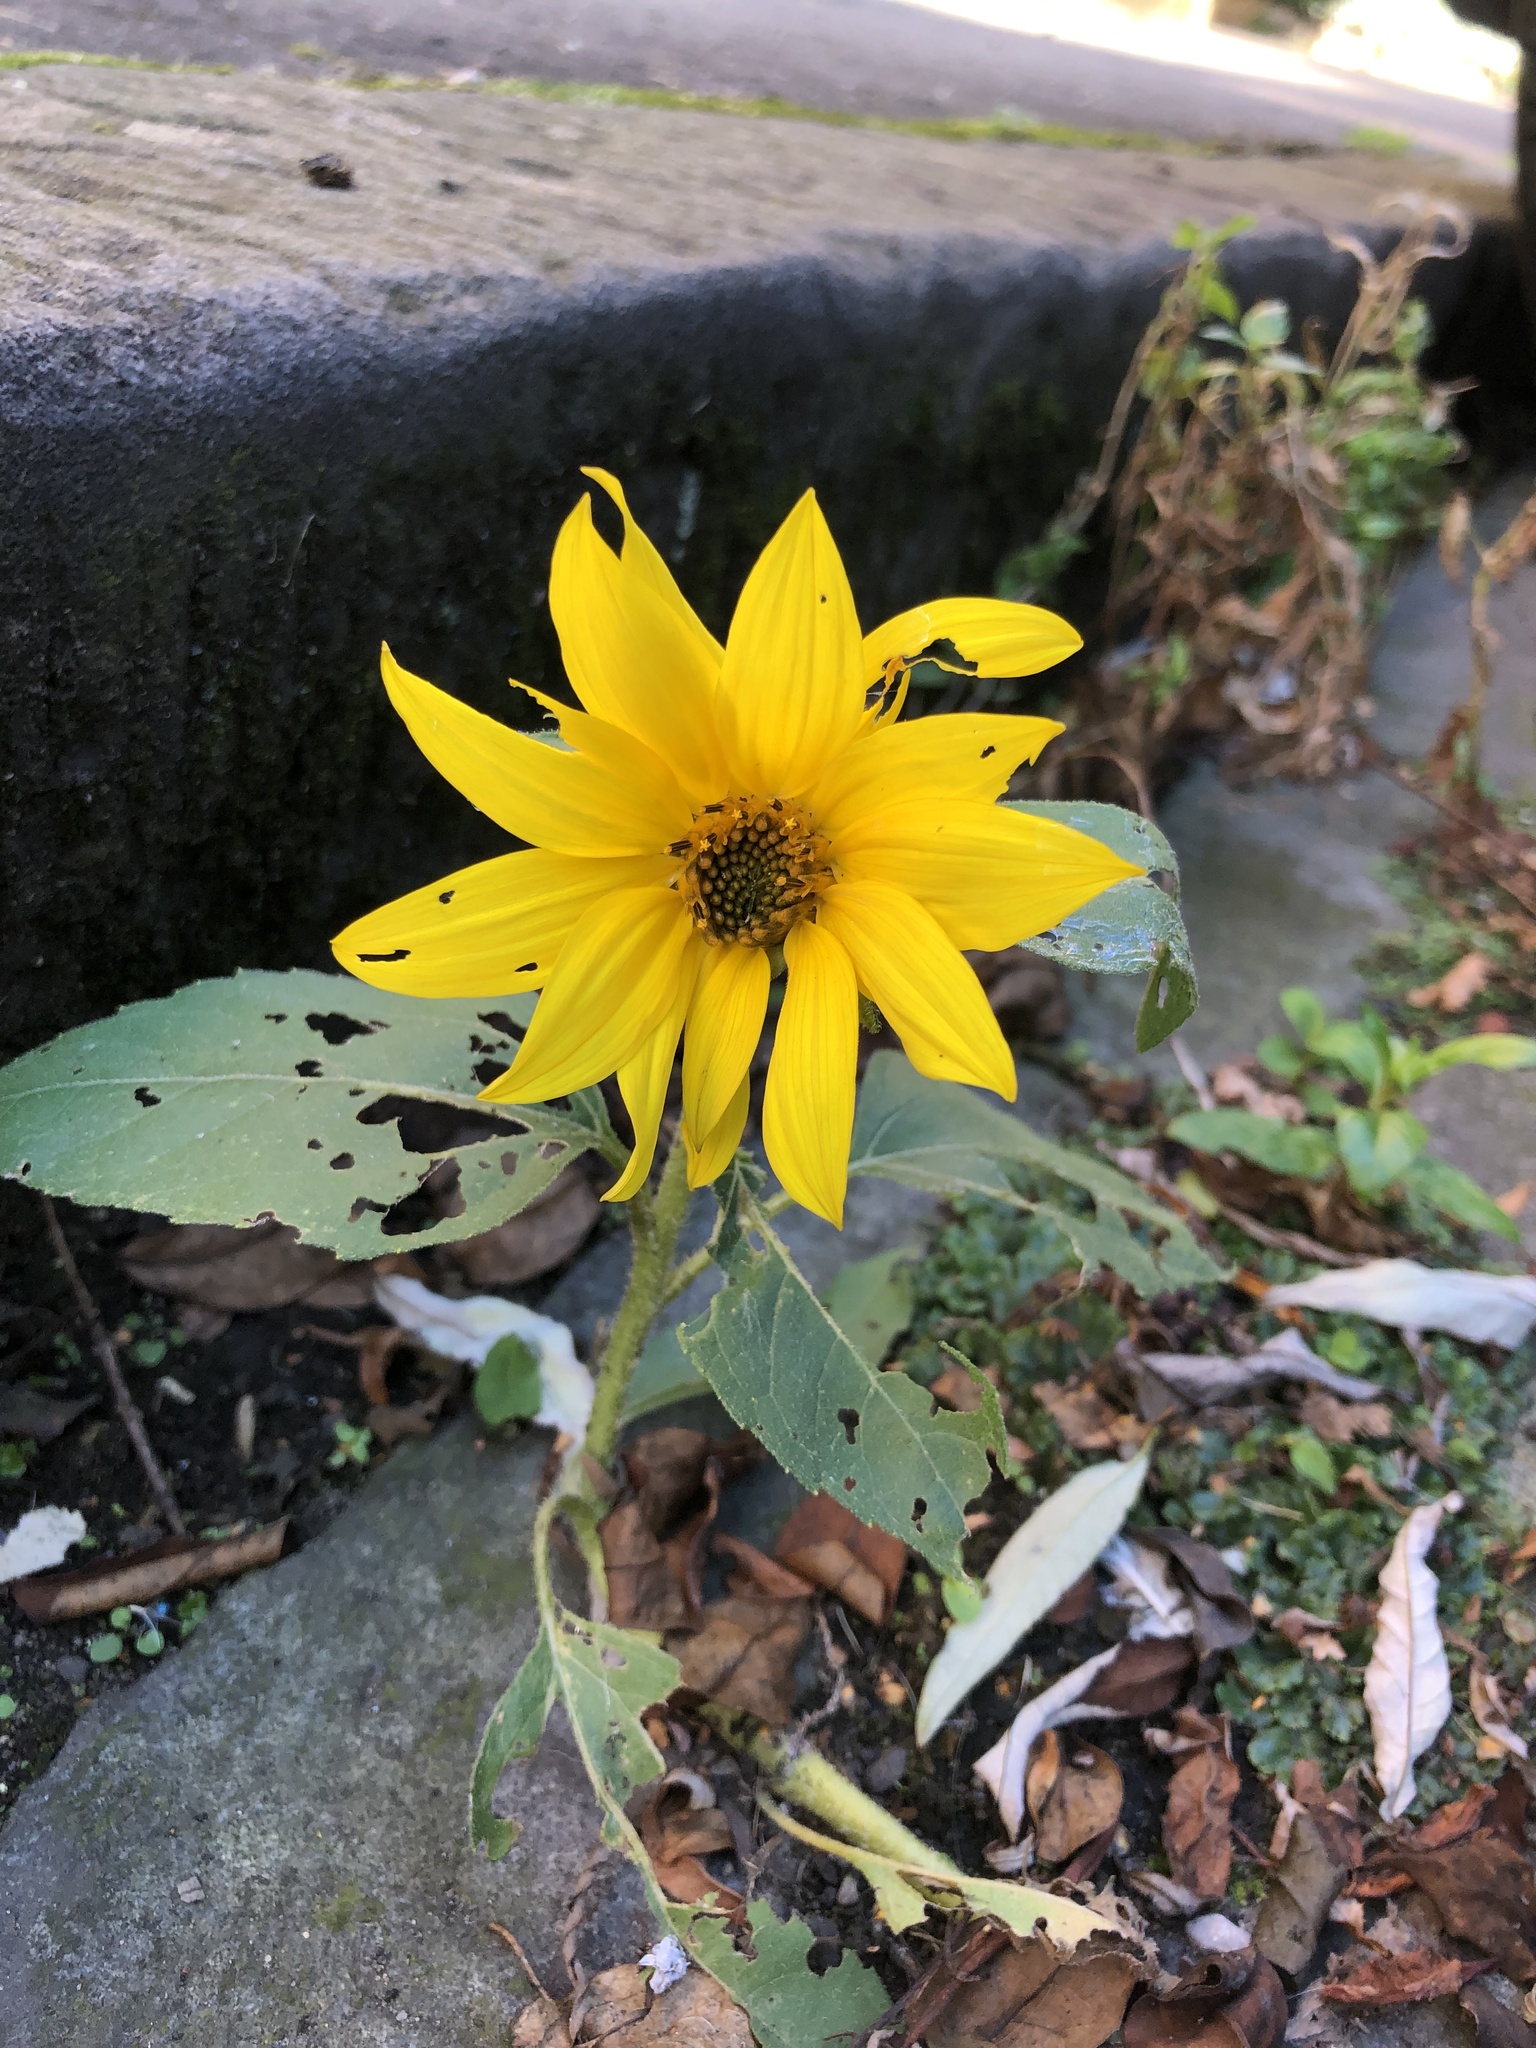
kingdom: Plantae
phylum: Tracheophyta
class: Magnoliopsida
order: Asterales
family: Asteraceae
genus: Helianthus
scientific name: Helianthus annuus
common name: Sunflower
